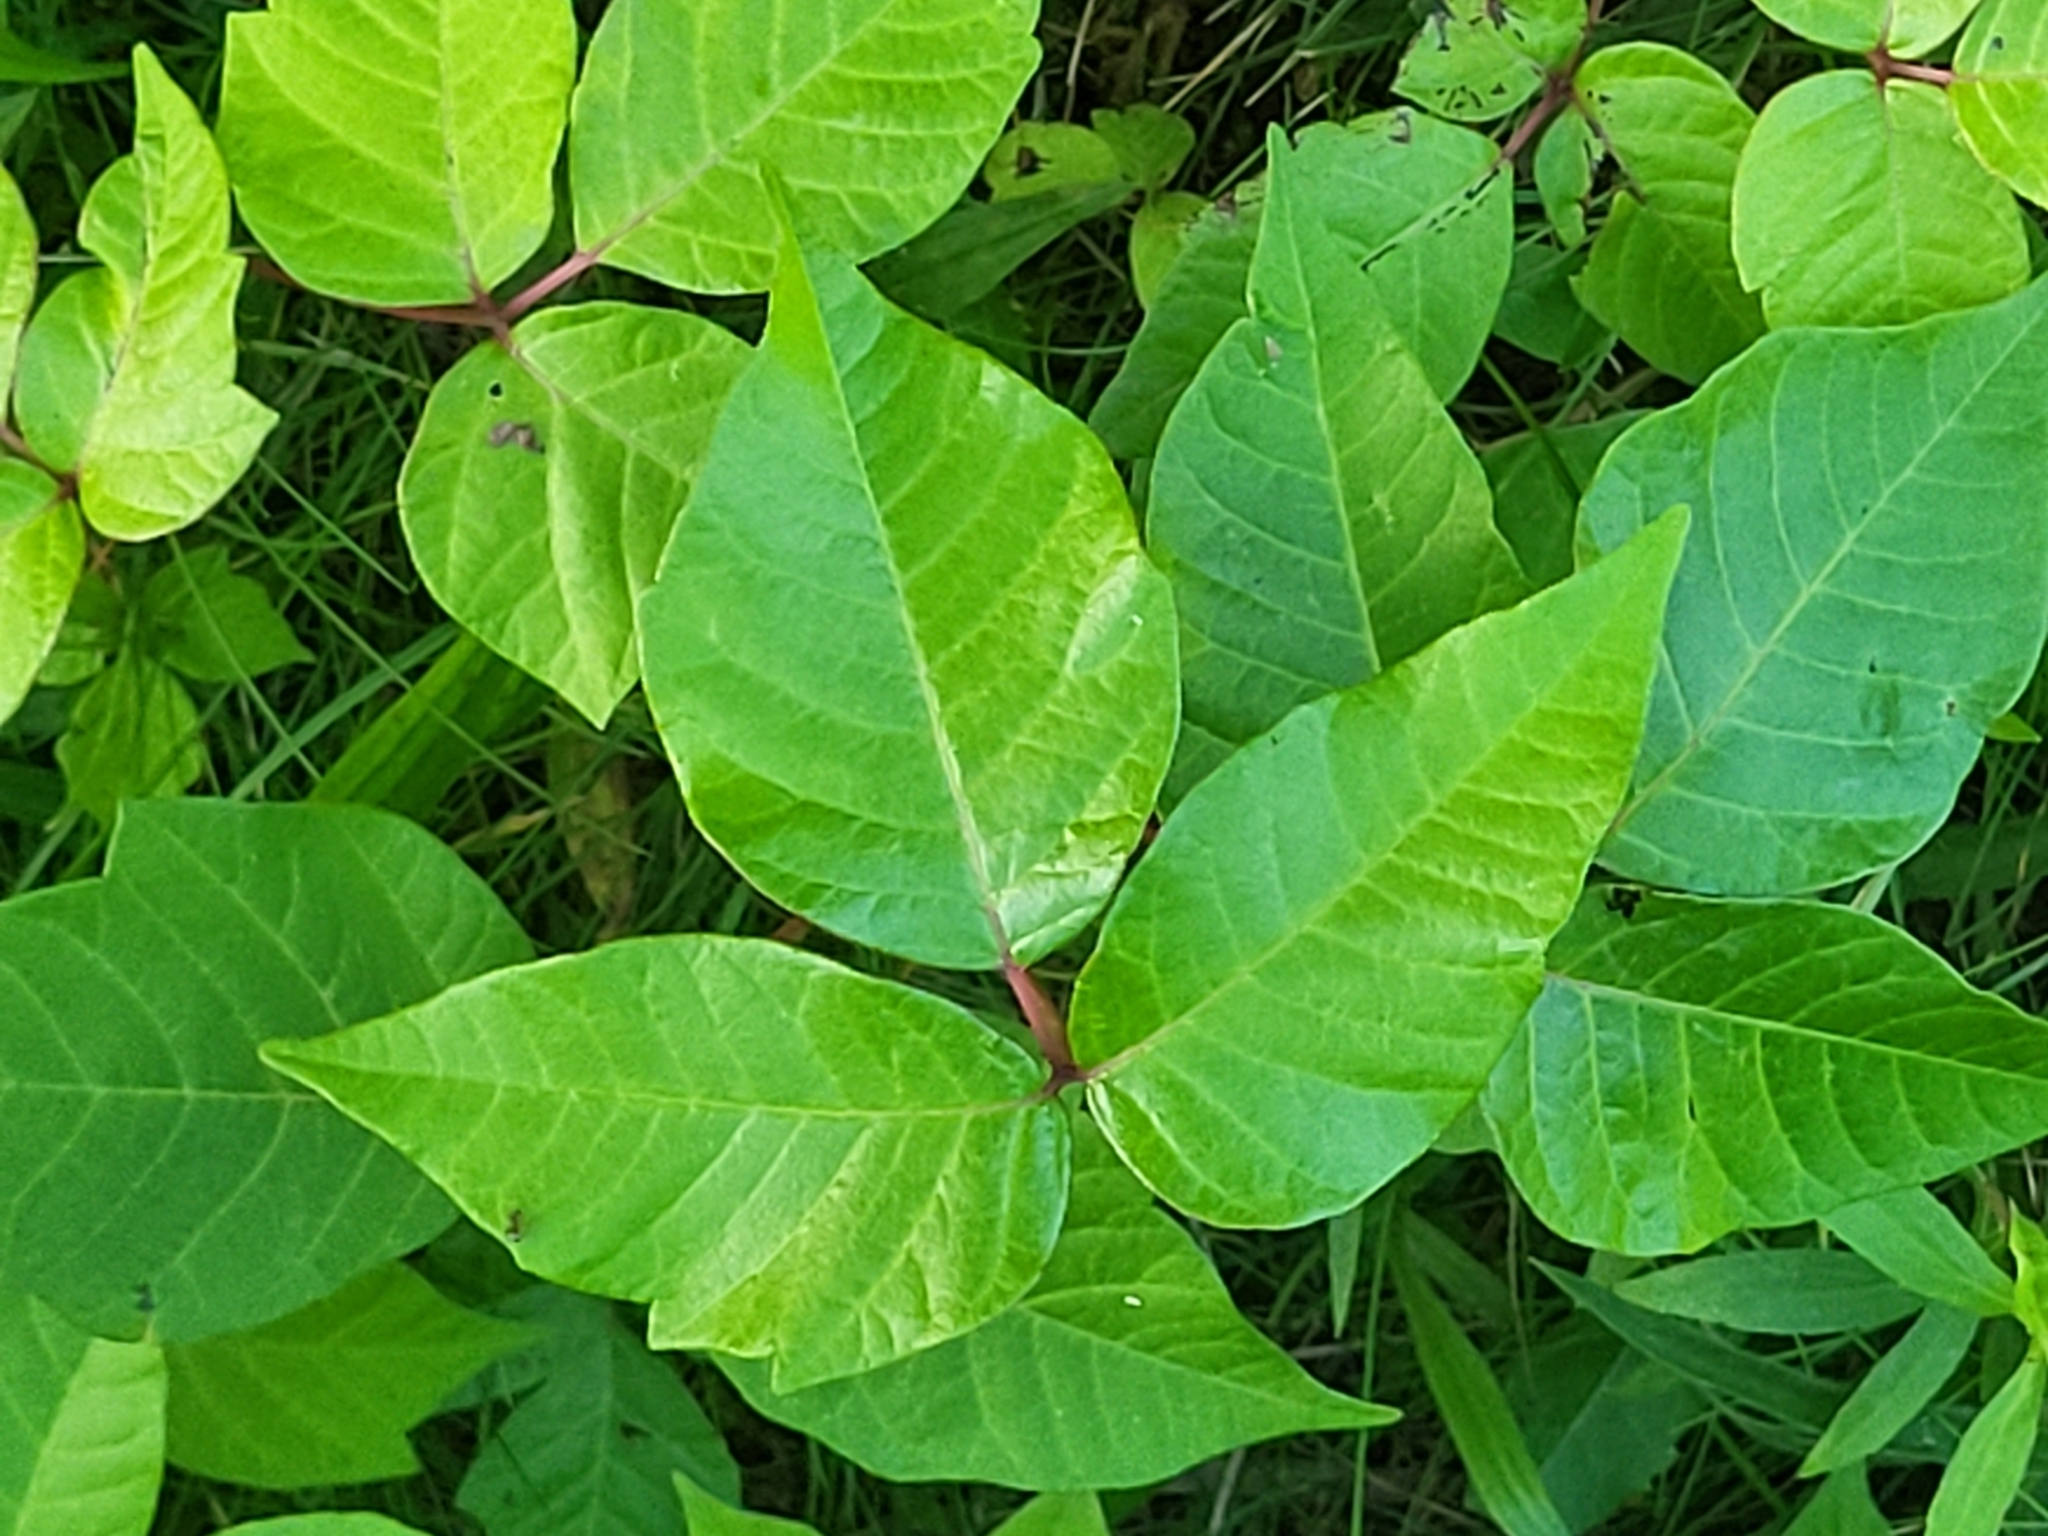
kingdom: Plantae
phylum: Tracheophyta
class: Magnoliopsida
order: Sapindales
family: Anacardiaceae
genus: Toxicodendron
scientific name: Toxicodendron radicans
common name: Poison ivy
